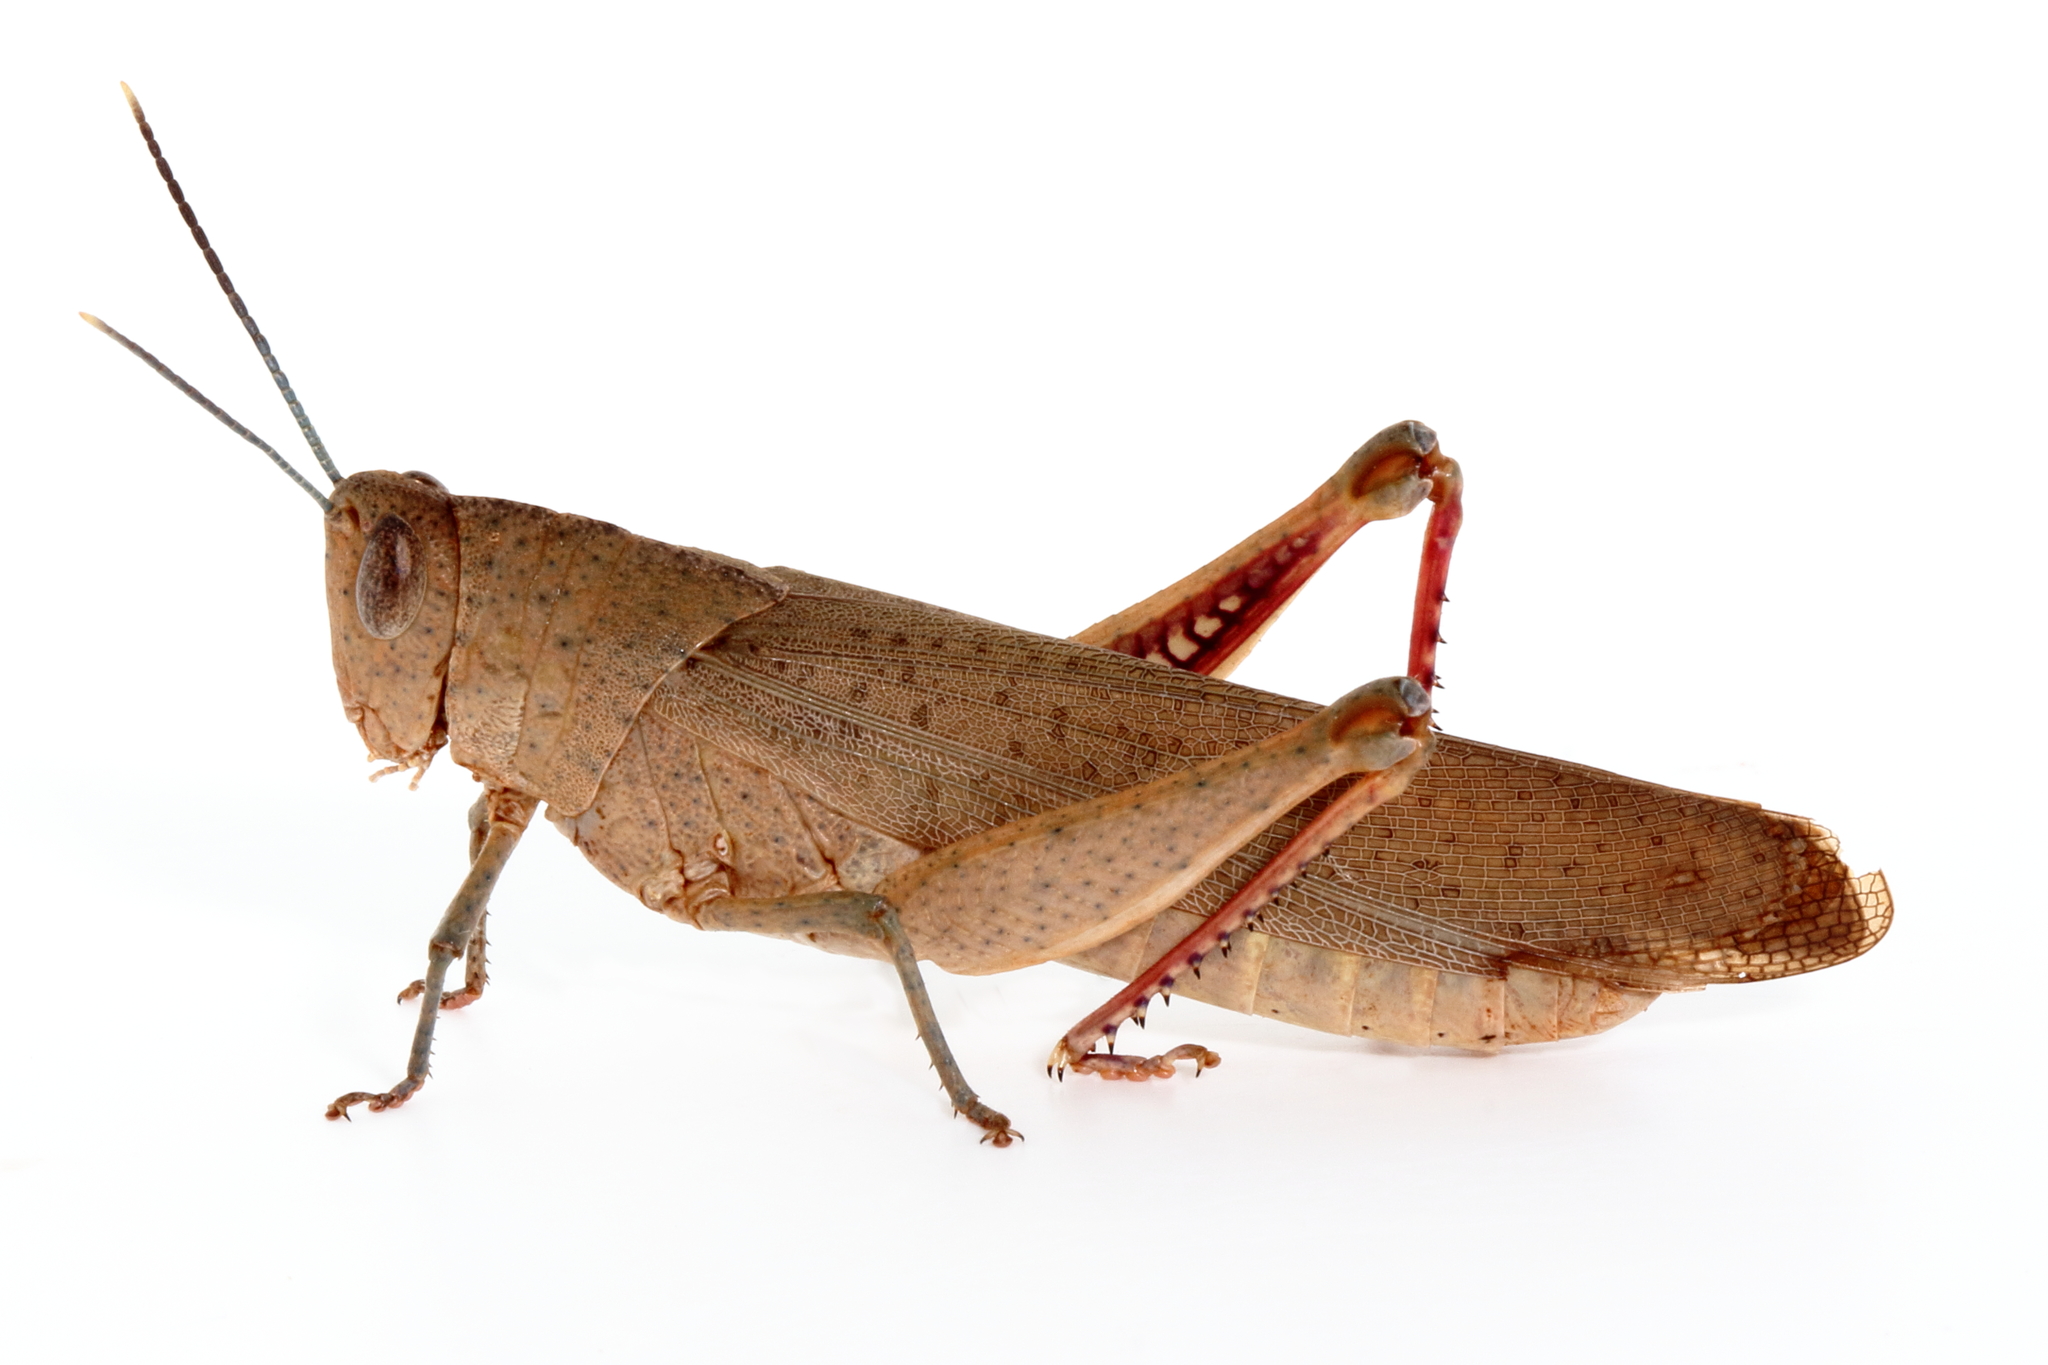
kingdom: Animalia
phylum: Arthropoda
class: Insecta
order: Orthoptera
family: Acrididae
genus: Goniaea
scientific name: Goniaea carinata
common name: Black-kneed gumleaf grasshopper
